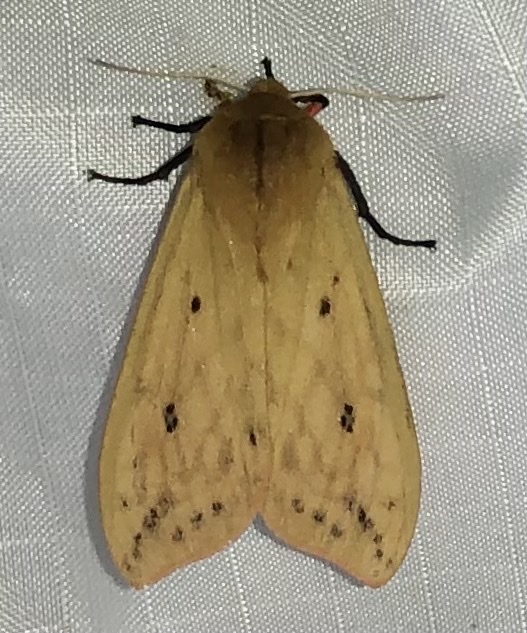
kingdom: Animalia
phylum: Arthropoda
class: Insecta
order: Lepidoptera
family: Erebidae
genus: Pyrrharctia
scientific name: Pyrrharctia isabella
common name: Isabella tiger moth
